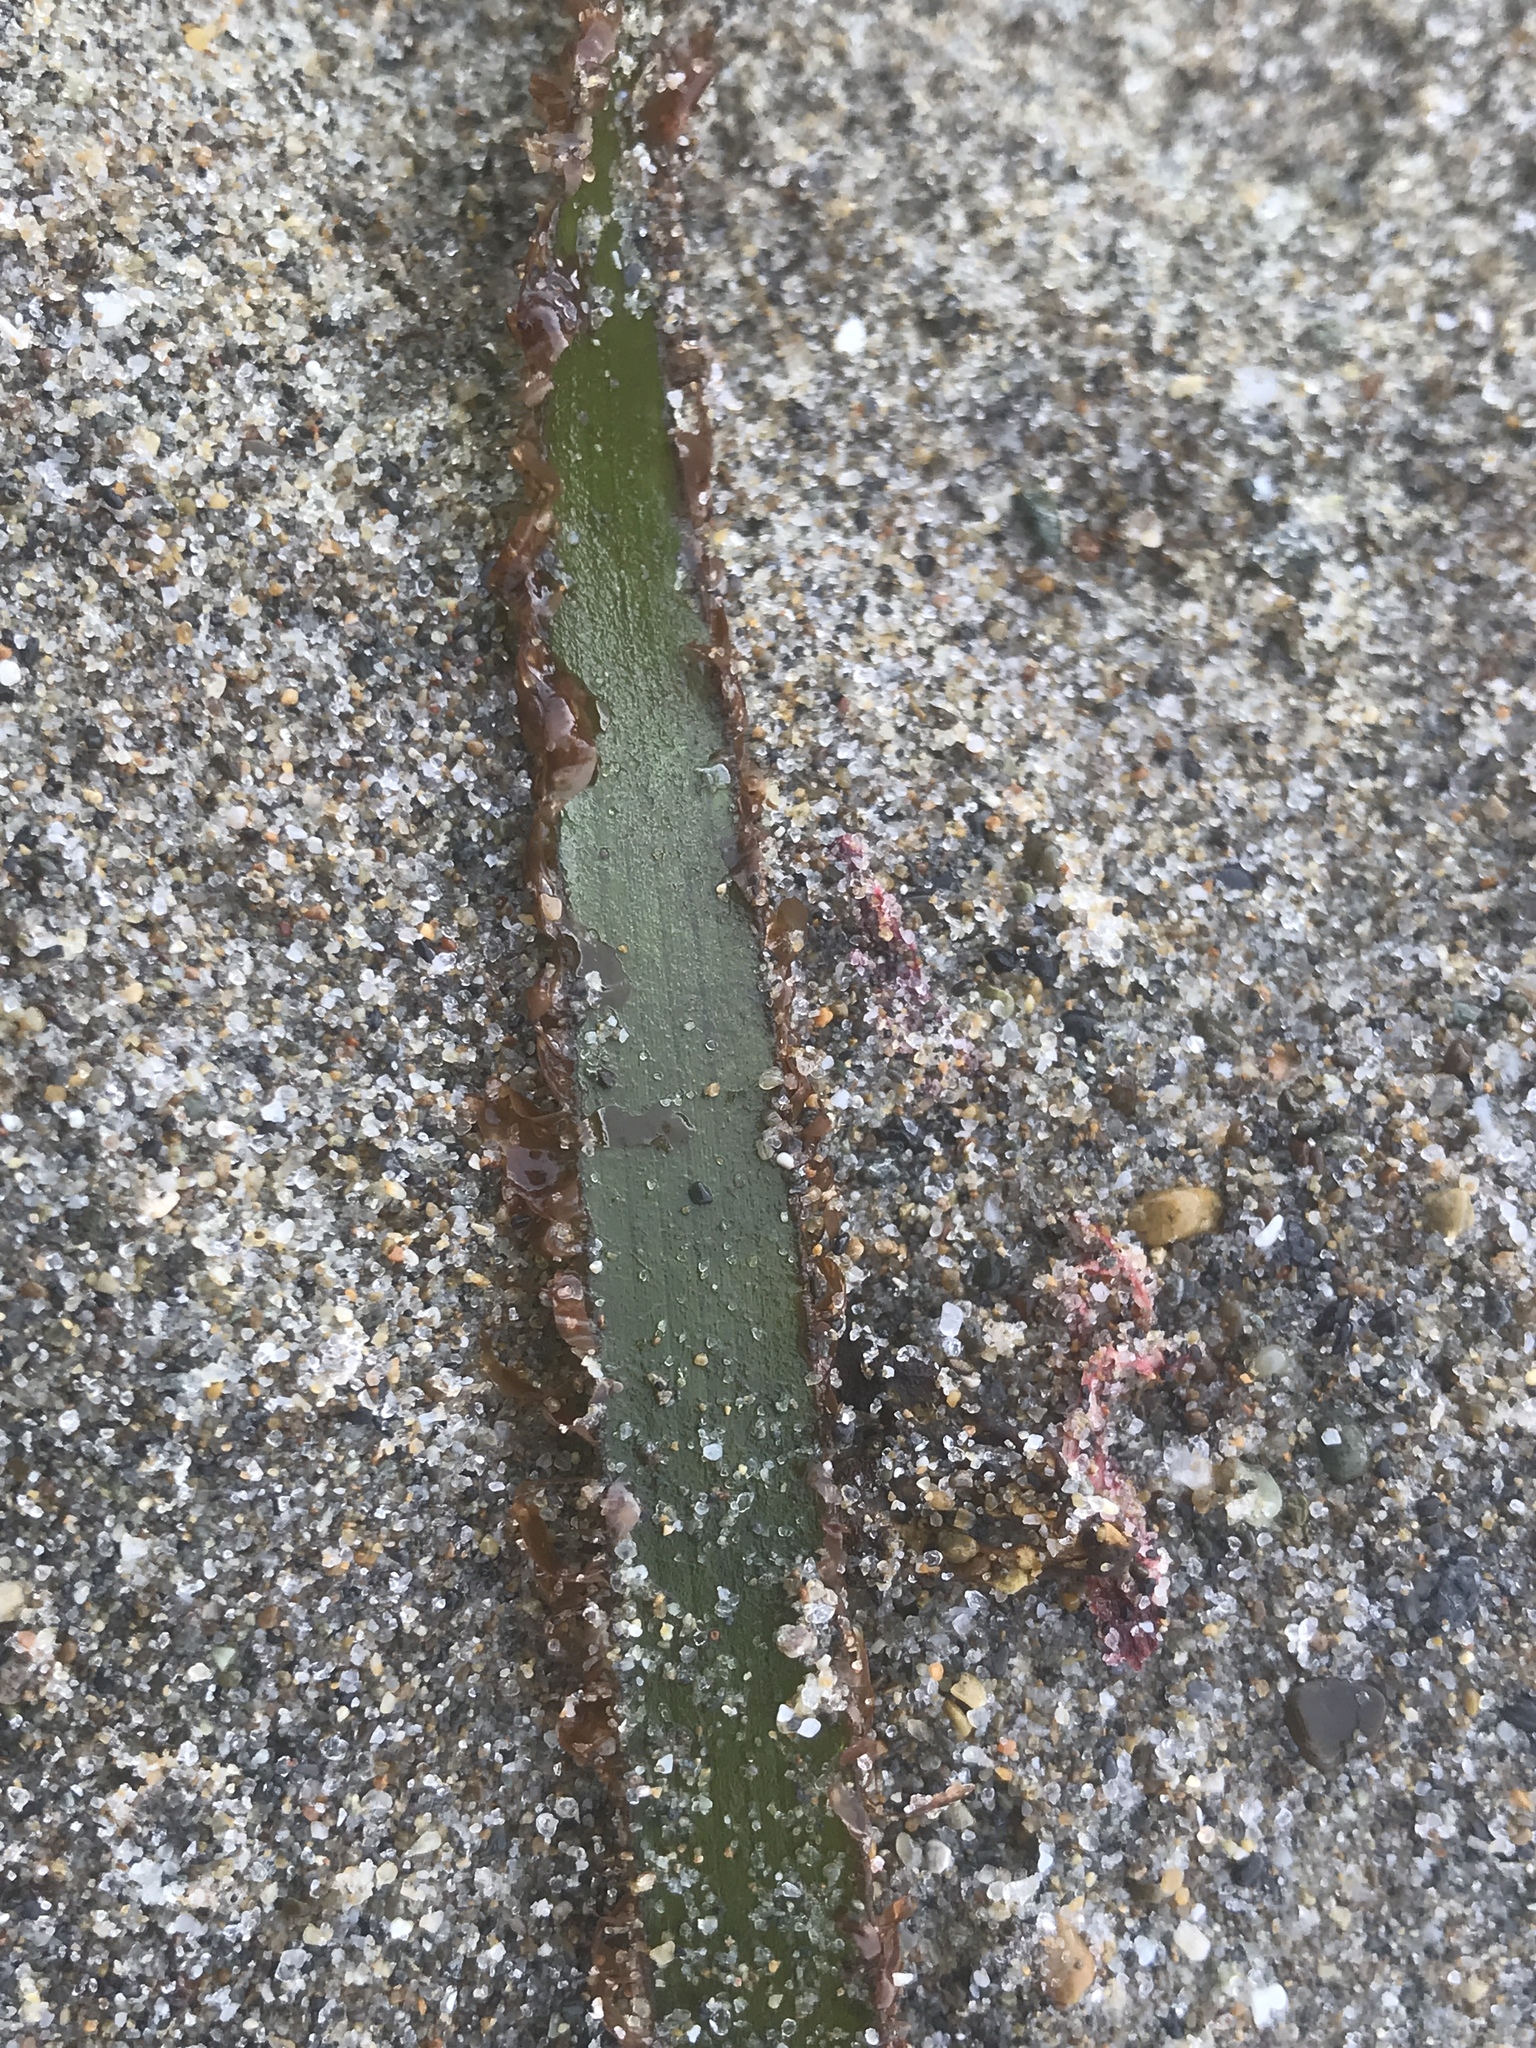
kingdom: Plantae
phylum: Tracheophyta
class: Liliopsida
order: Alismatales
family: Zosteraceae
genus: Zostera
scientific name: Zostera marina
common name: Eelgrass
